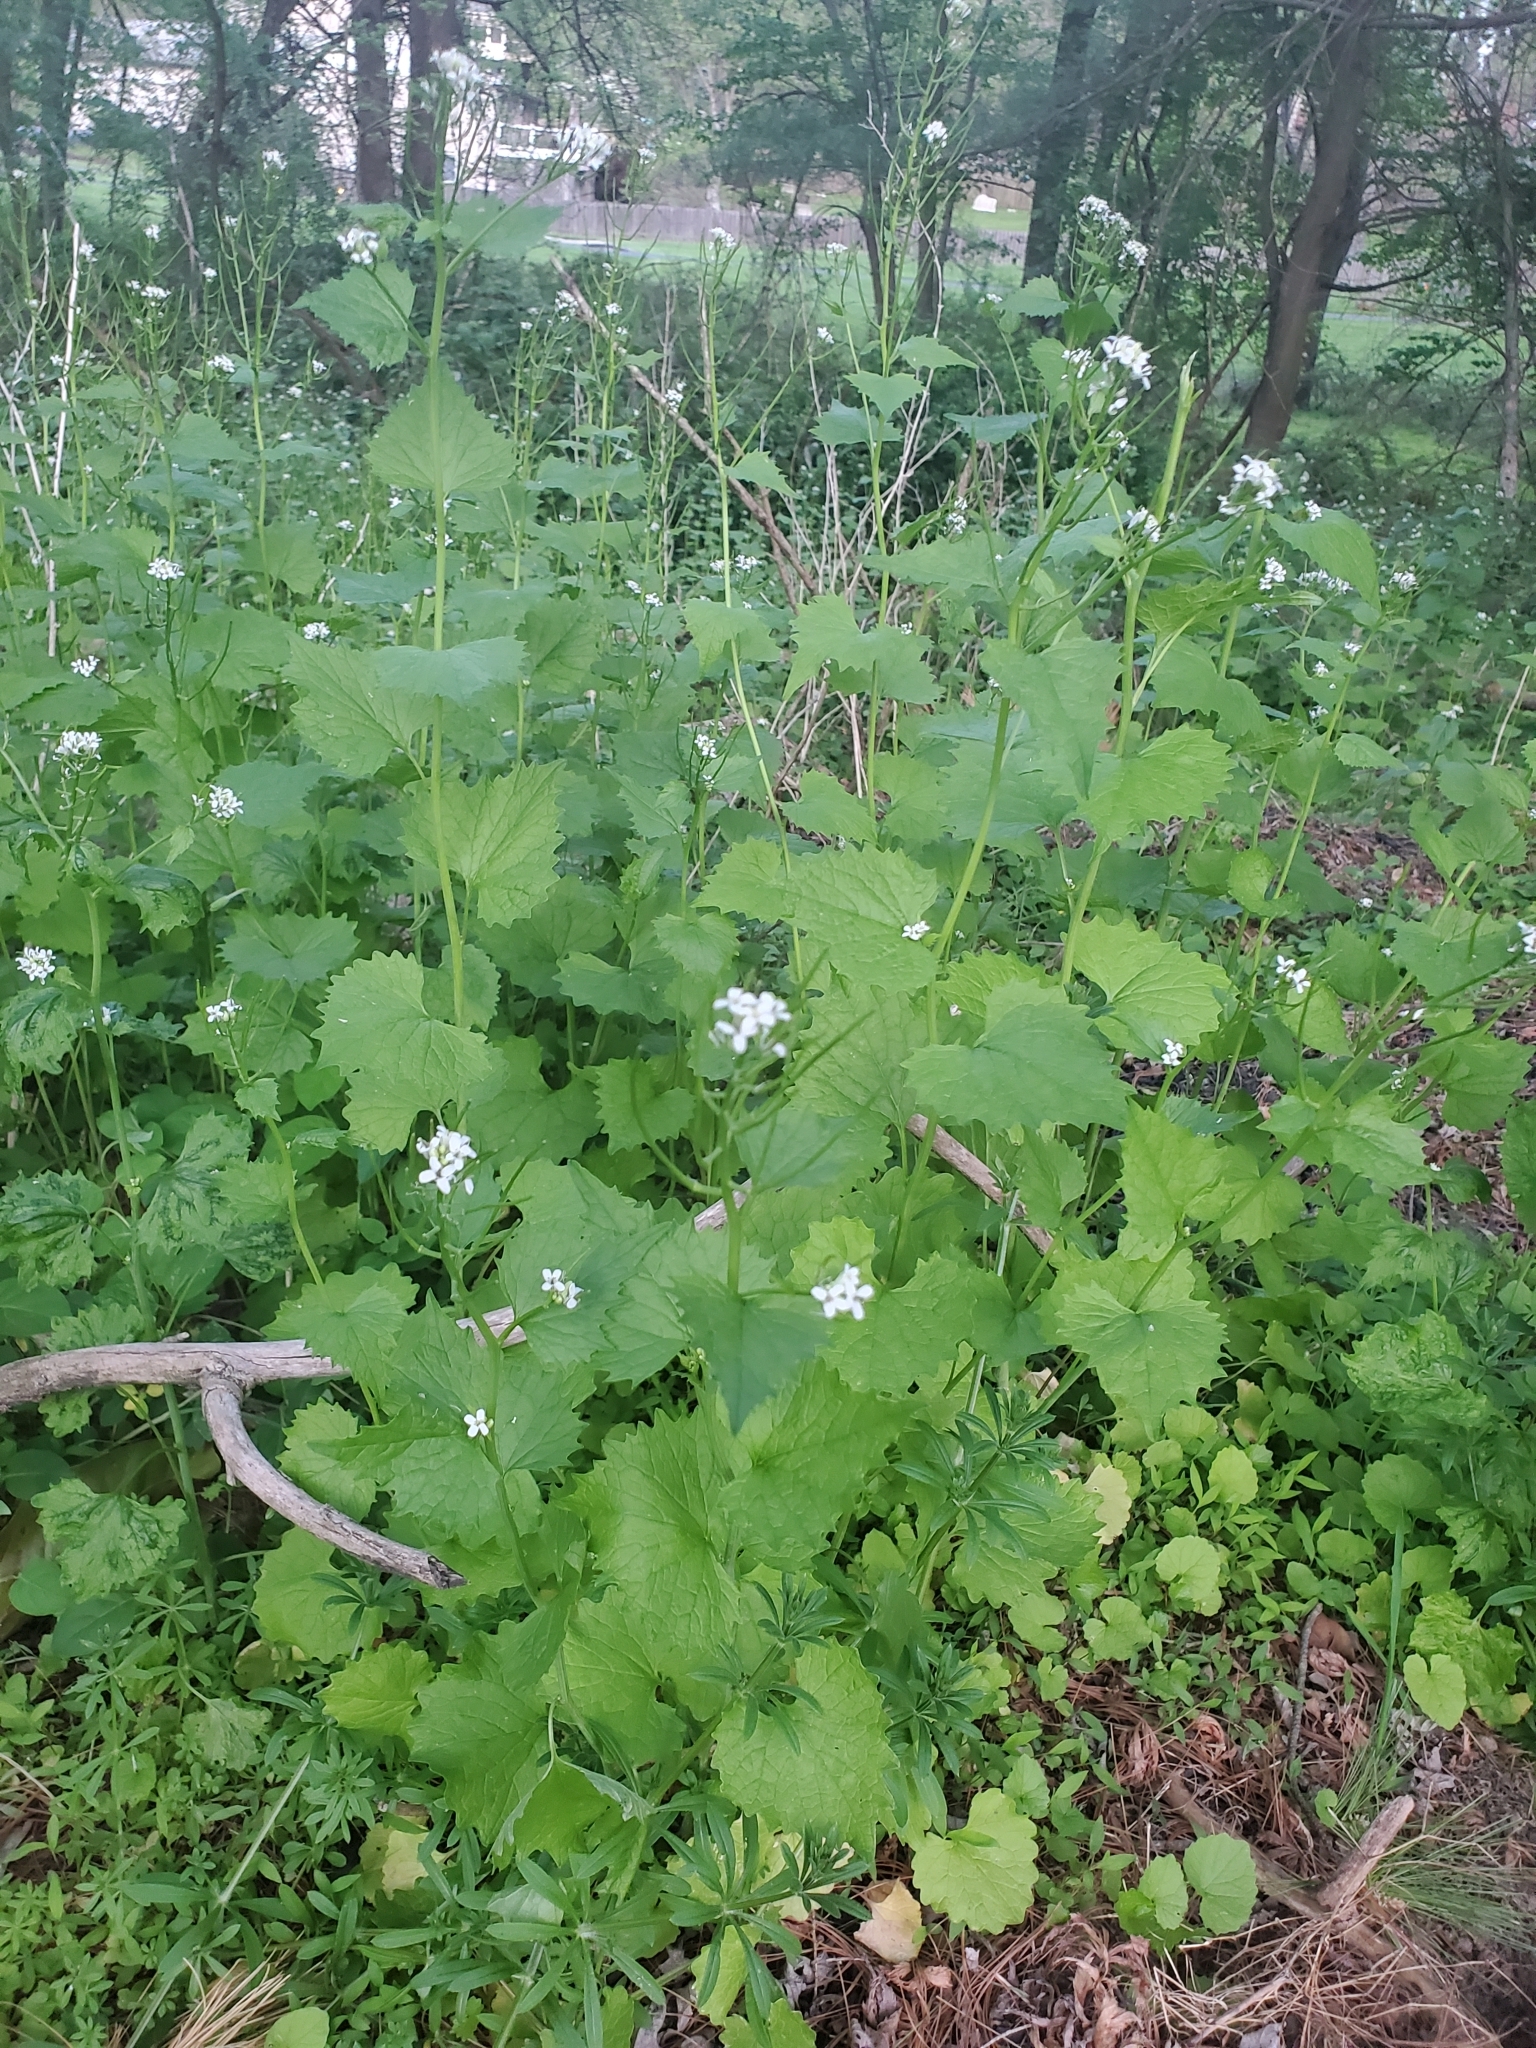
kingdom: Plantae
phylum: Tracheophyta
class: Magnoliopsida
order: Brassicales
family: Brassicaceae
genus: Alliaria
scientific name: Alliaria petiolata
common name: Garlic mustard
